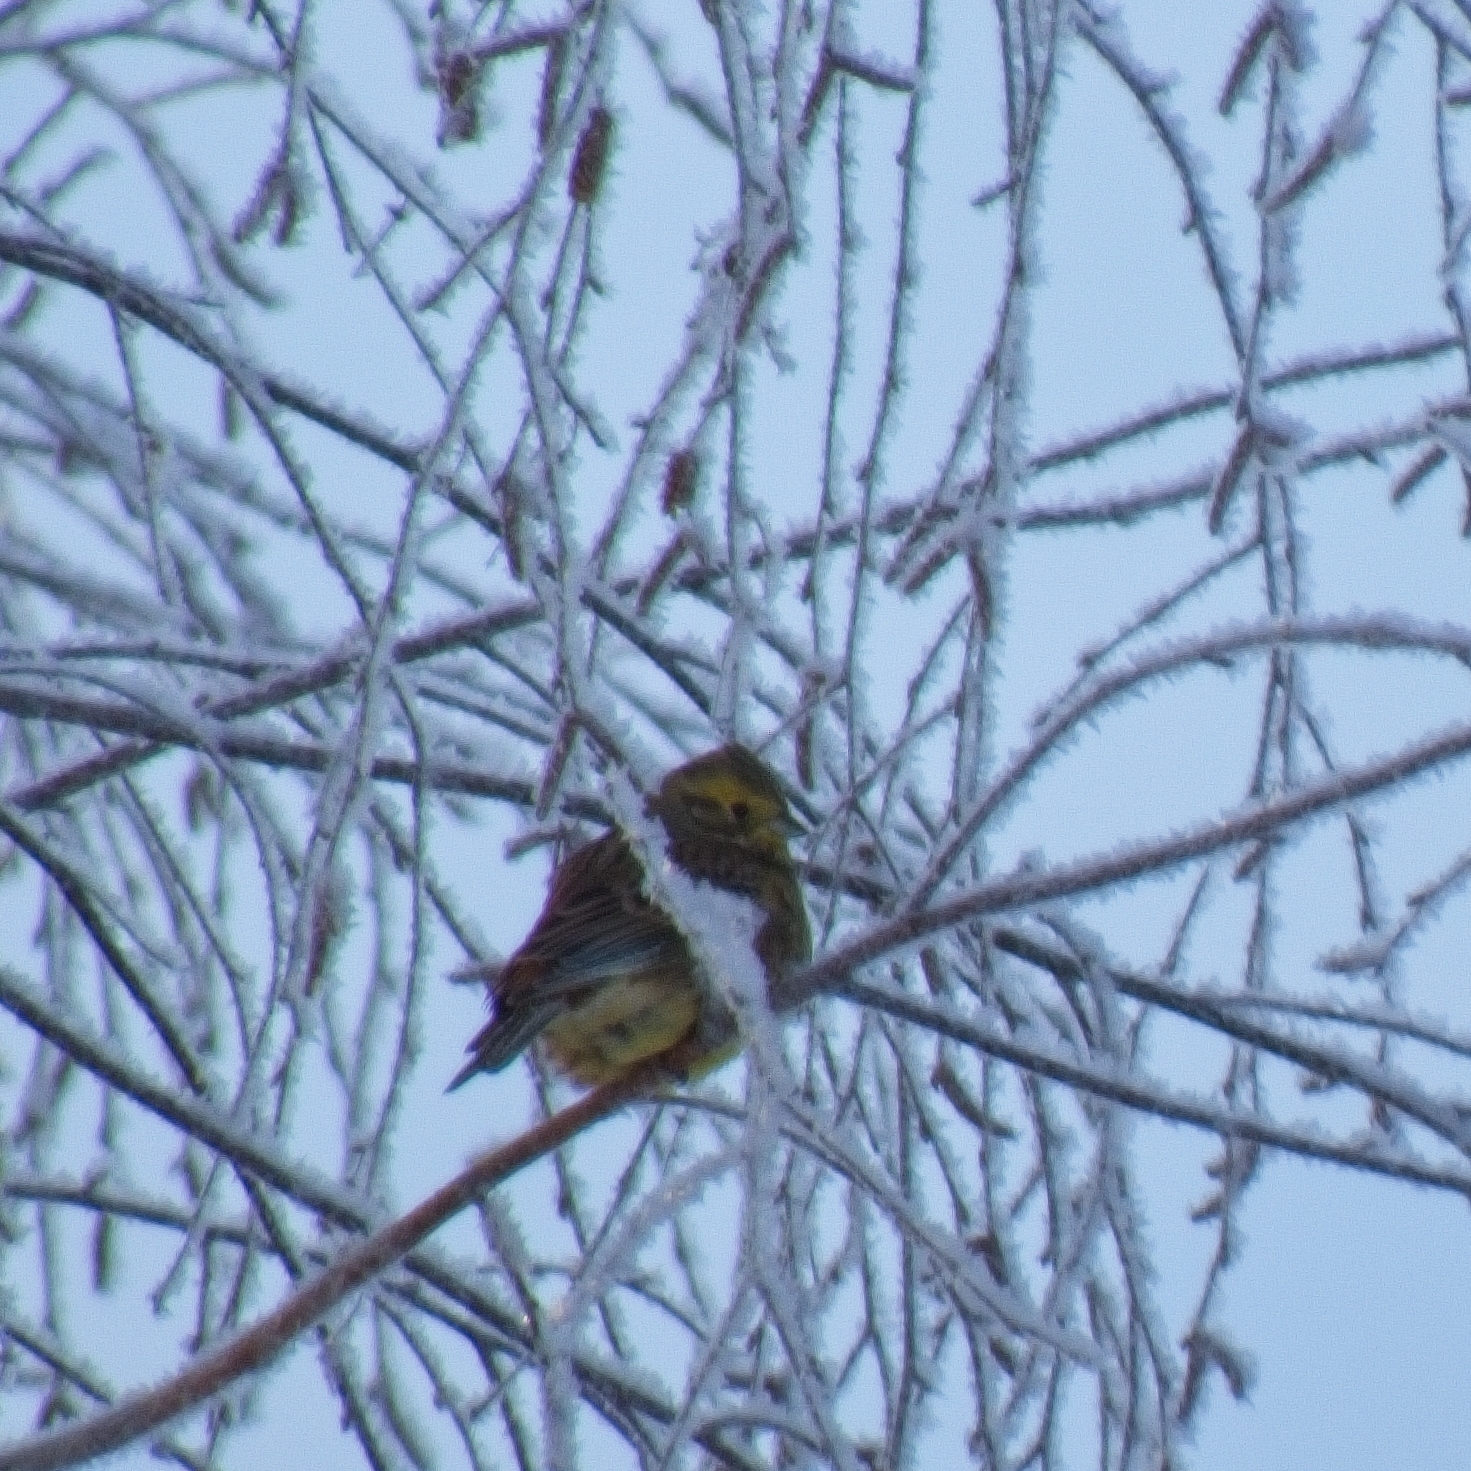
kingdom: Animalia
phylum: Chordata
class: Aves
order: Passeriformes
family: Emberizidae
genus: Emberiza
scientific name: Emberiza citrinella
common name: Yellowhammer
